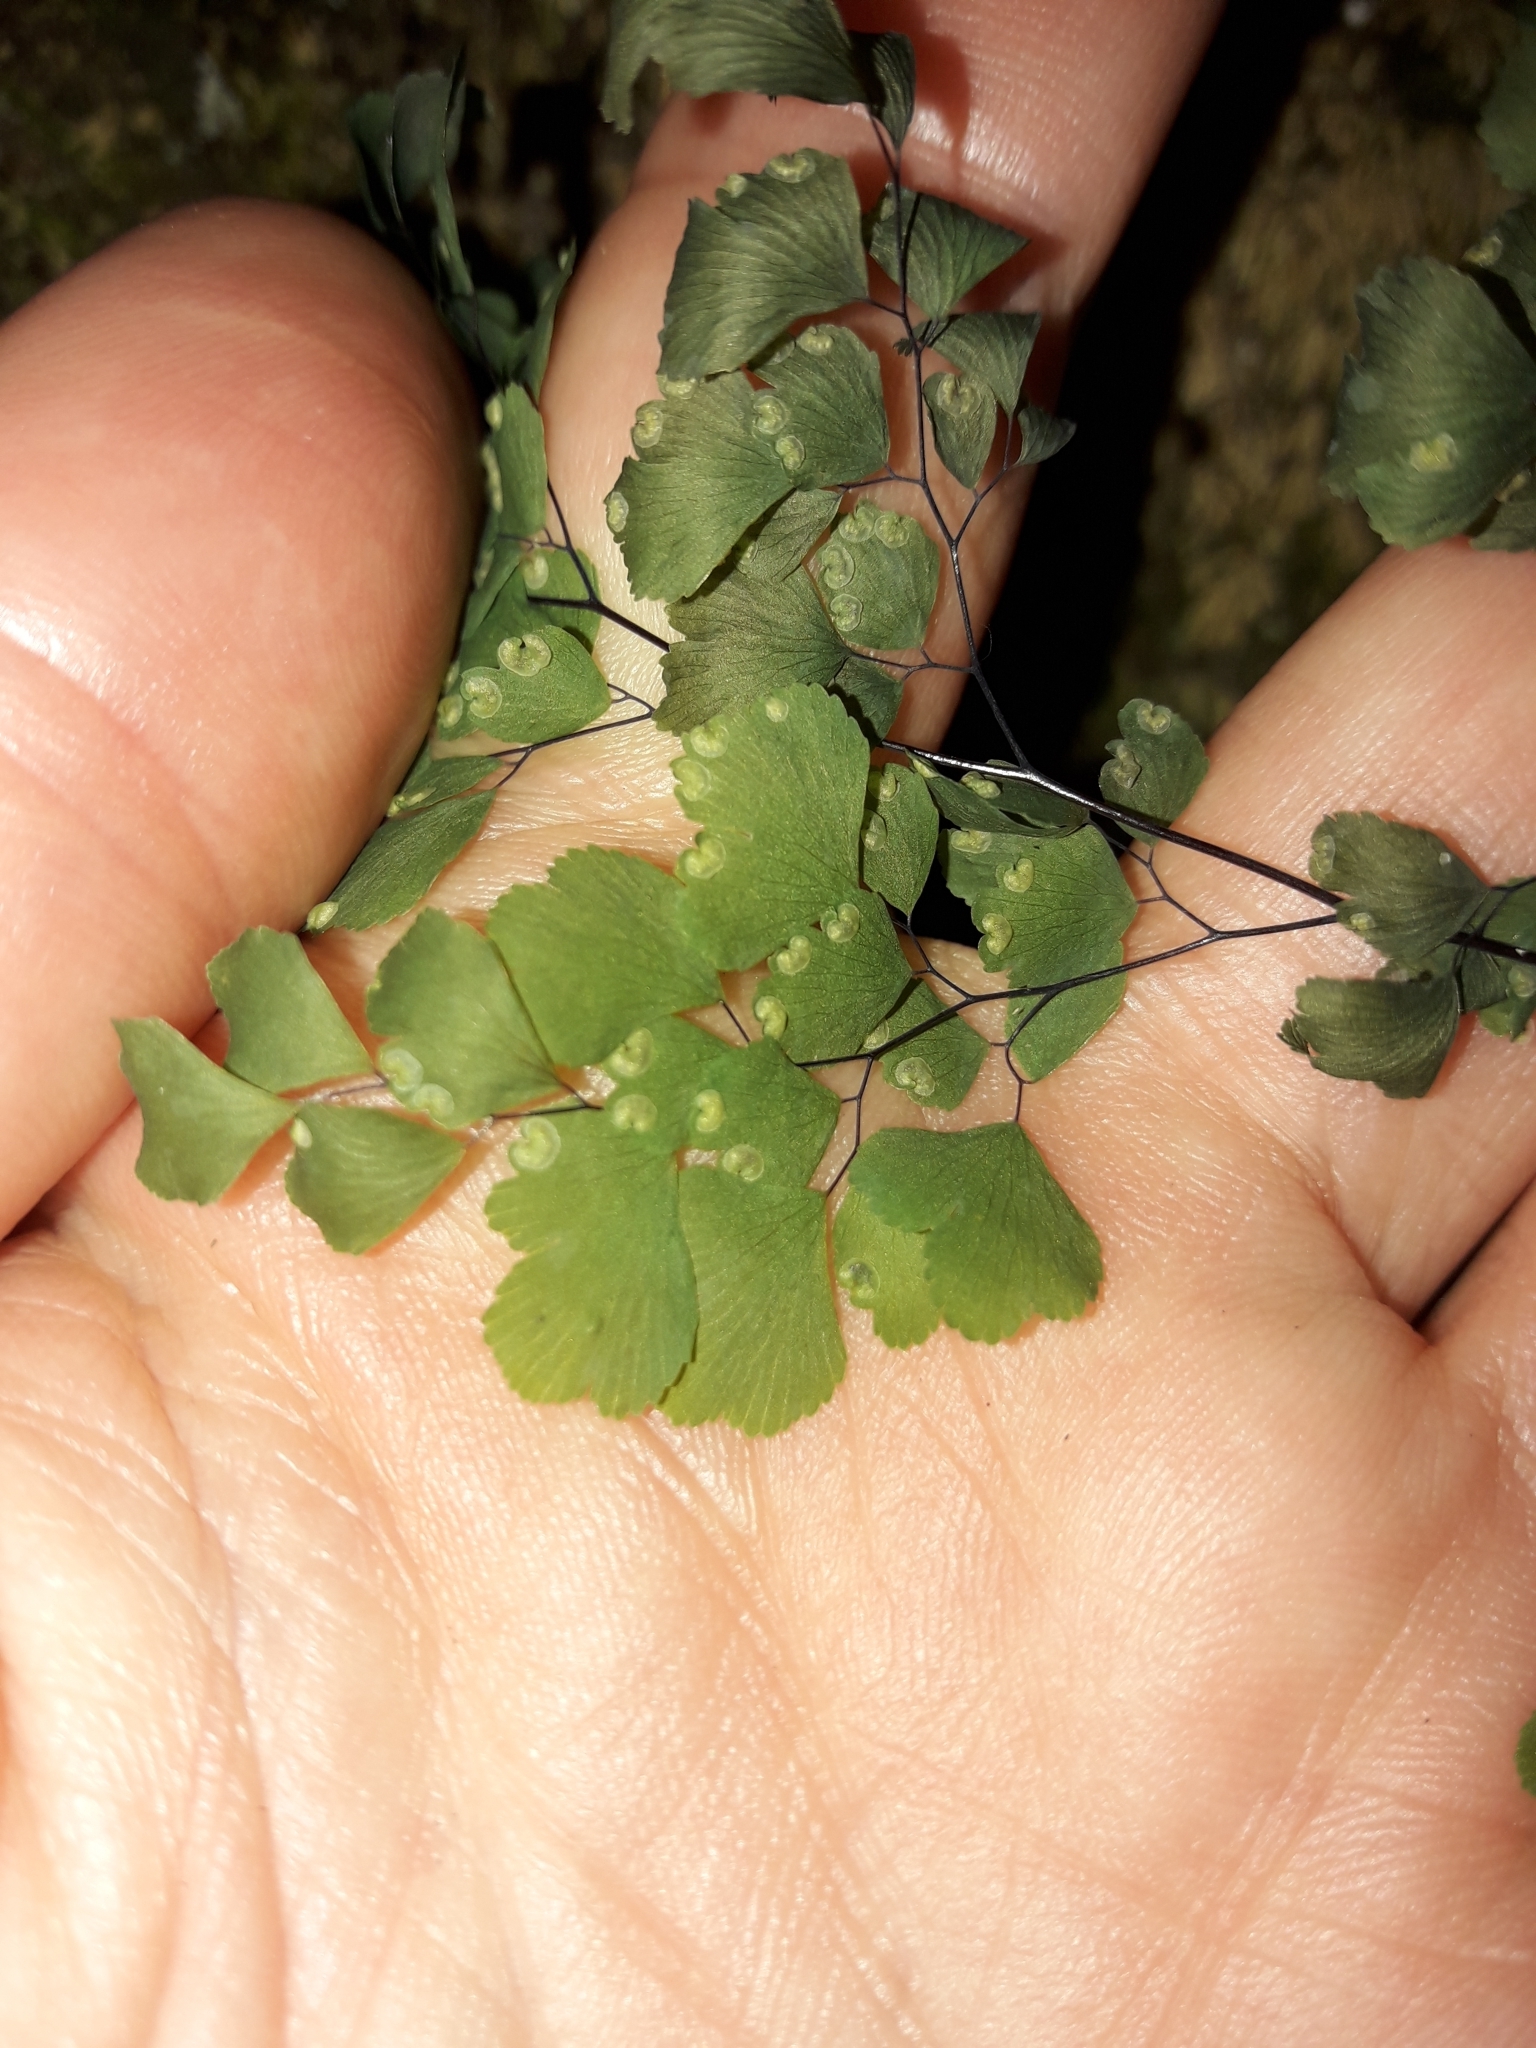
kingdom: Plantae
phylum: Tracheophyta
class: Polypodiopsida
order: Polypodiales
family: Pteridaceae
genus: Adiantum
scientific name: Adiantum raddianum
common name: Delta maidenhair fern
